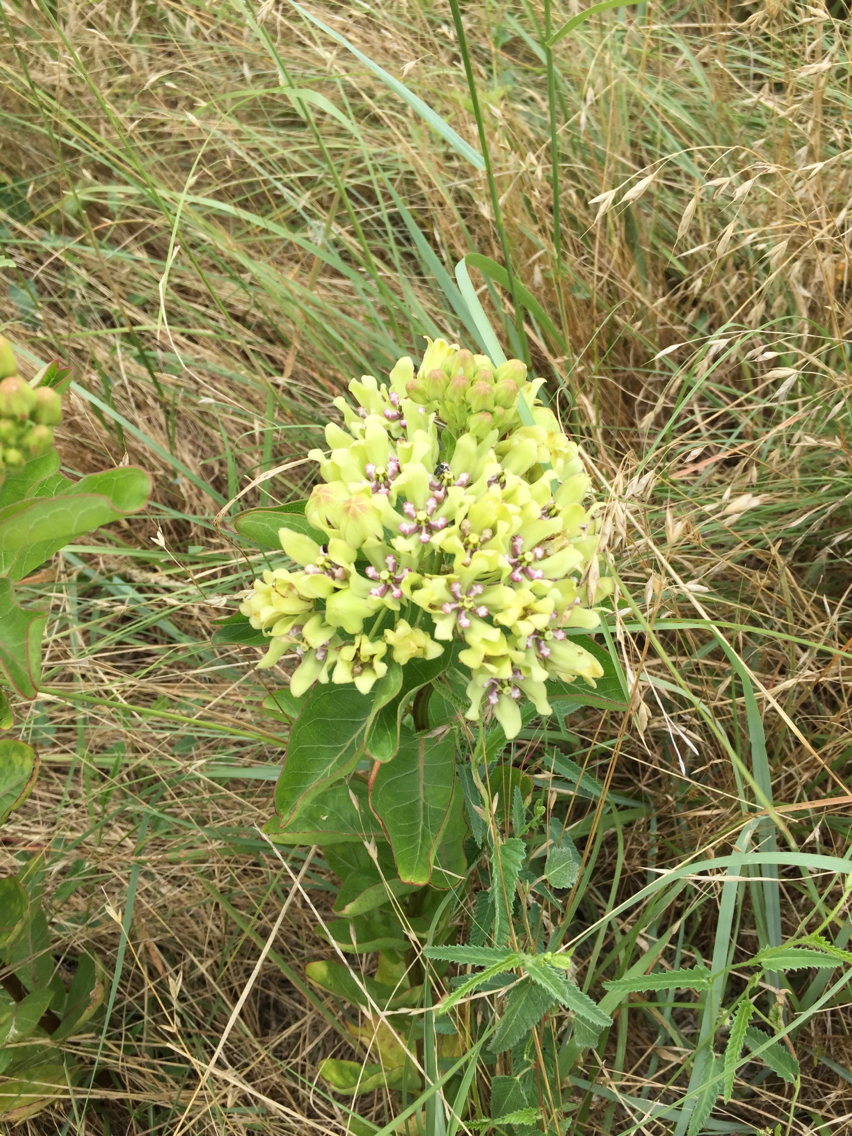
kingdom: Plantae
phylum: Tracheophyta
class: Magnoliopsida
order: Gentianales
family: Apocynaceae
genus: Asclepias
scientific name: Asclepias viridis
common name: Antelope-horns
